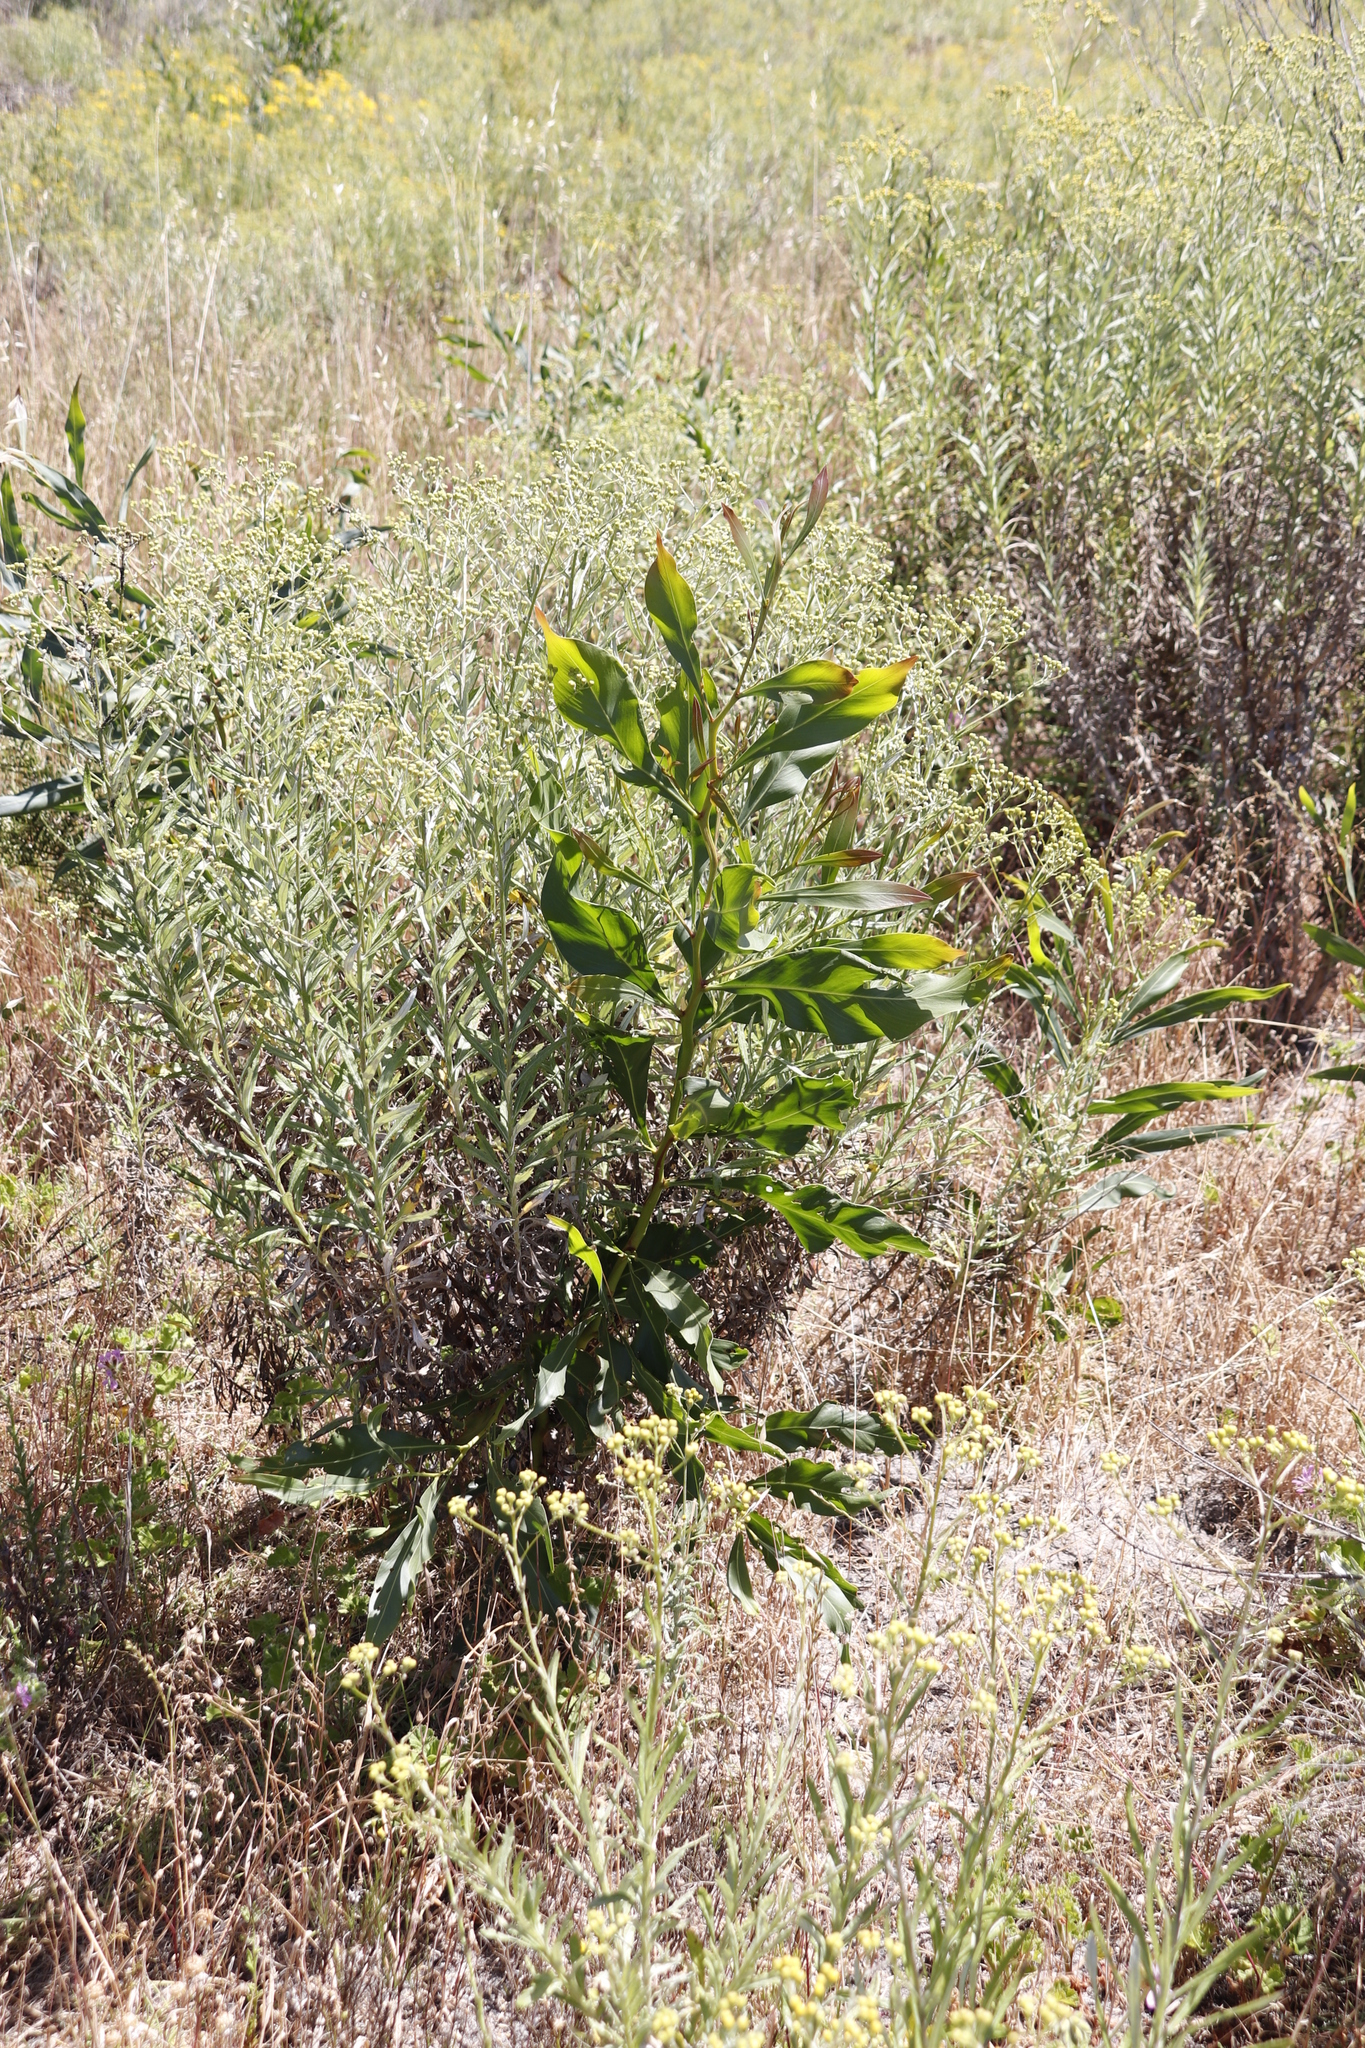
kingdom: Plantae
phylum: Tracheophyta
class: Magnoliopsida
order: Fabales
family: Fabaceae
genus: Acacia
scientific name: Acacia saligna
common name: Orange wattle
